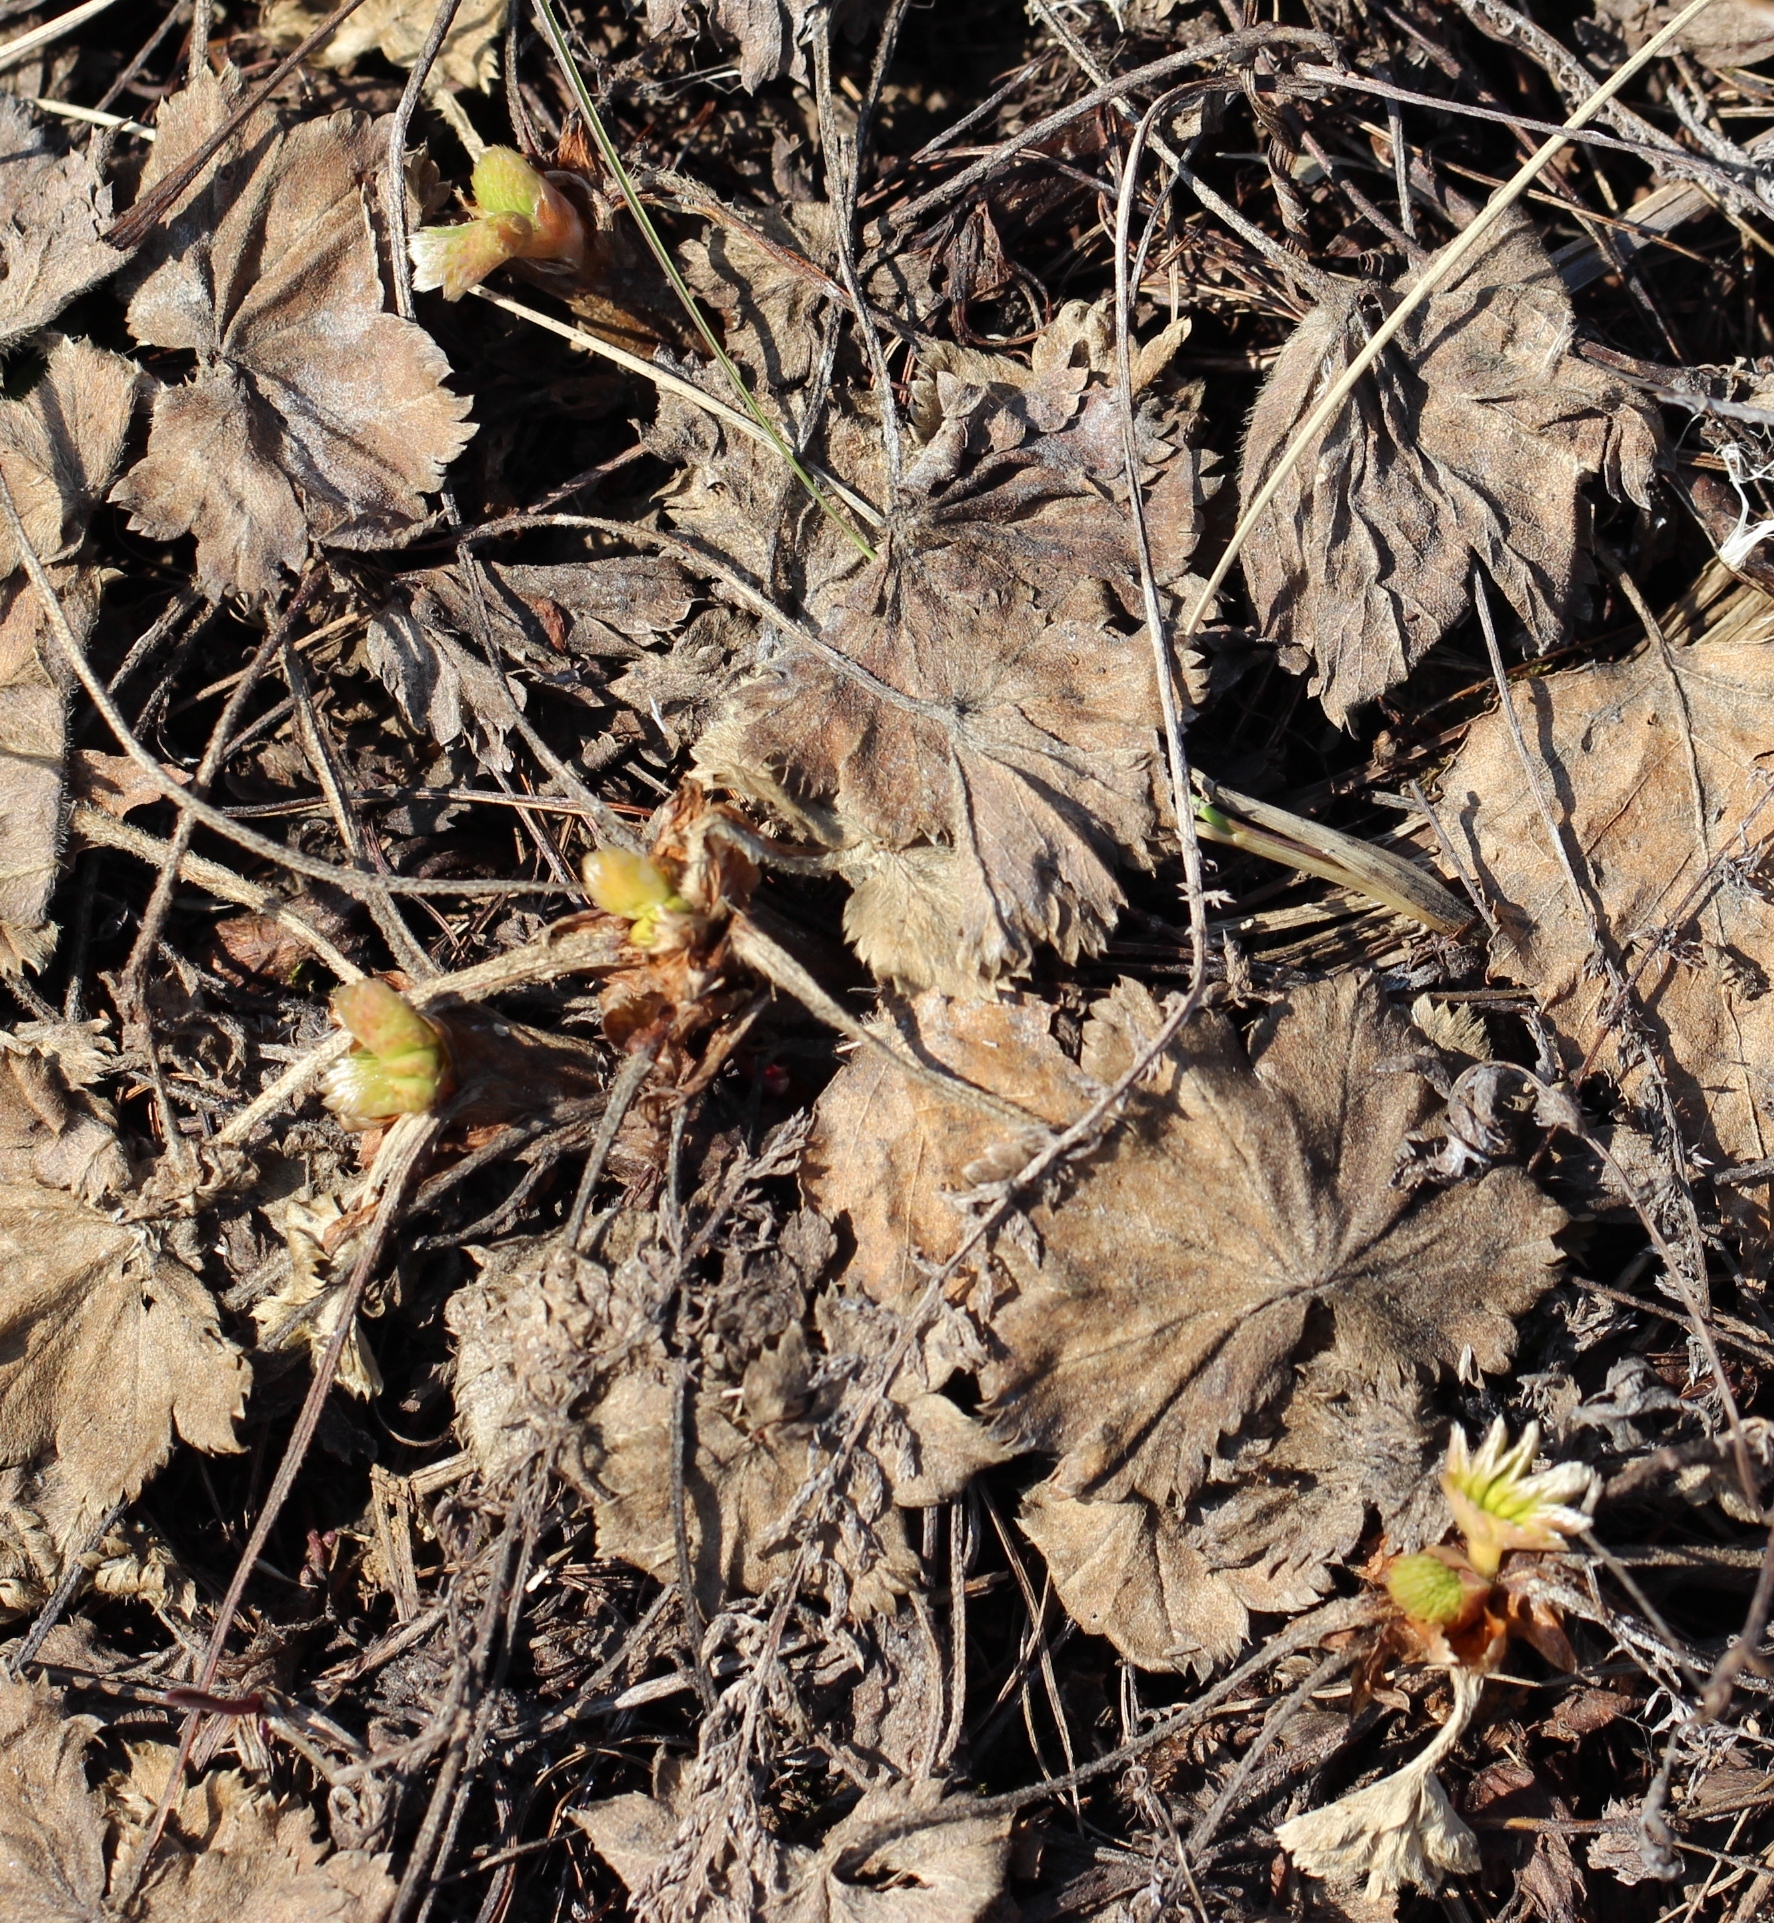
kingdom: Plantae
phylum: Tracheophyta
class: Magnoliopsida
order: Rosales
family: Rosaceae
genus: Alchemilla
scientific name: Alchemilla
